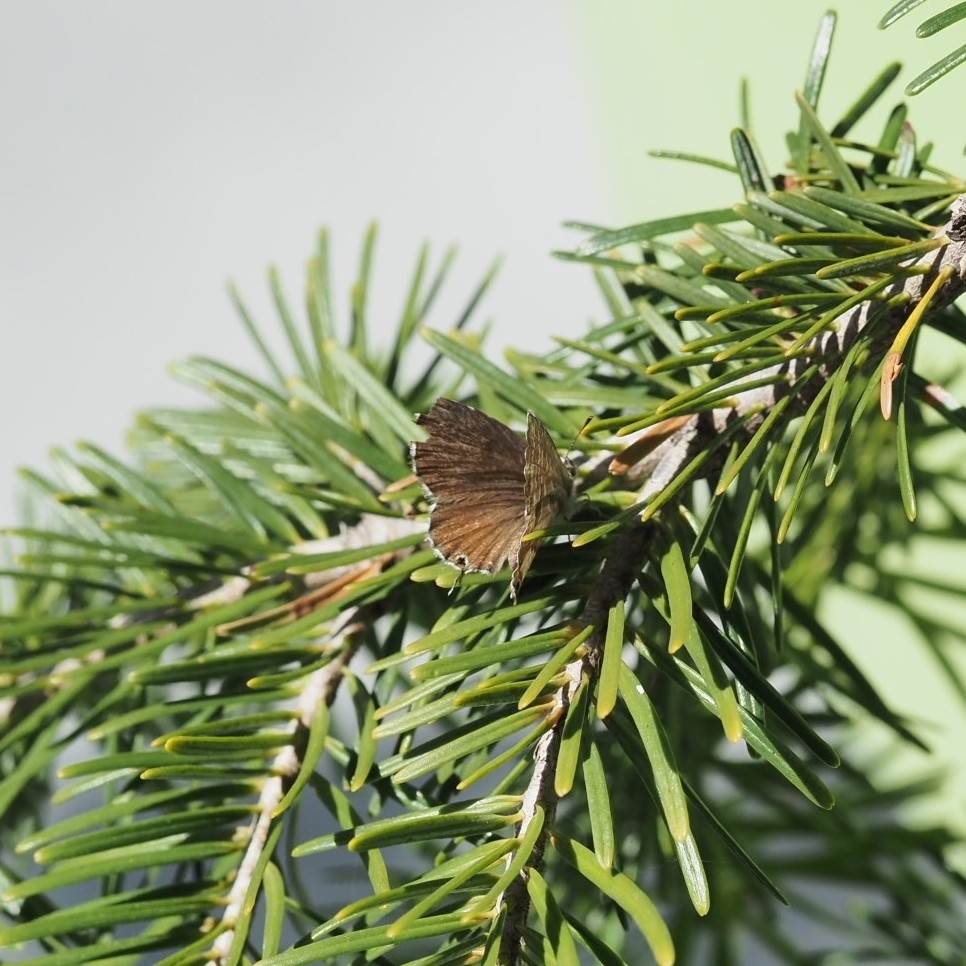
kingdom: Animalia
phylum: Arthropoda
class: Insecta
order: Lepidoptera
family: Lycaenidae
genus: Cacyreus
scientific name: Cacyreus marshalli
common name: Geranium bronze
